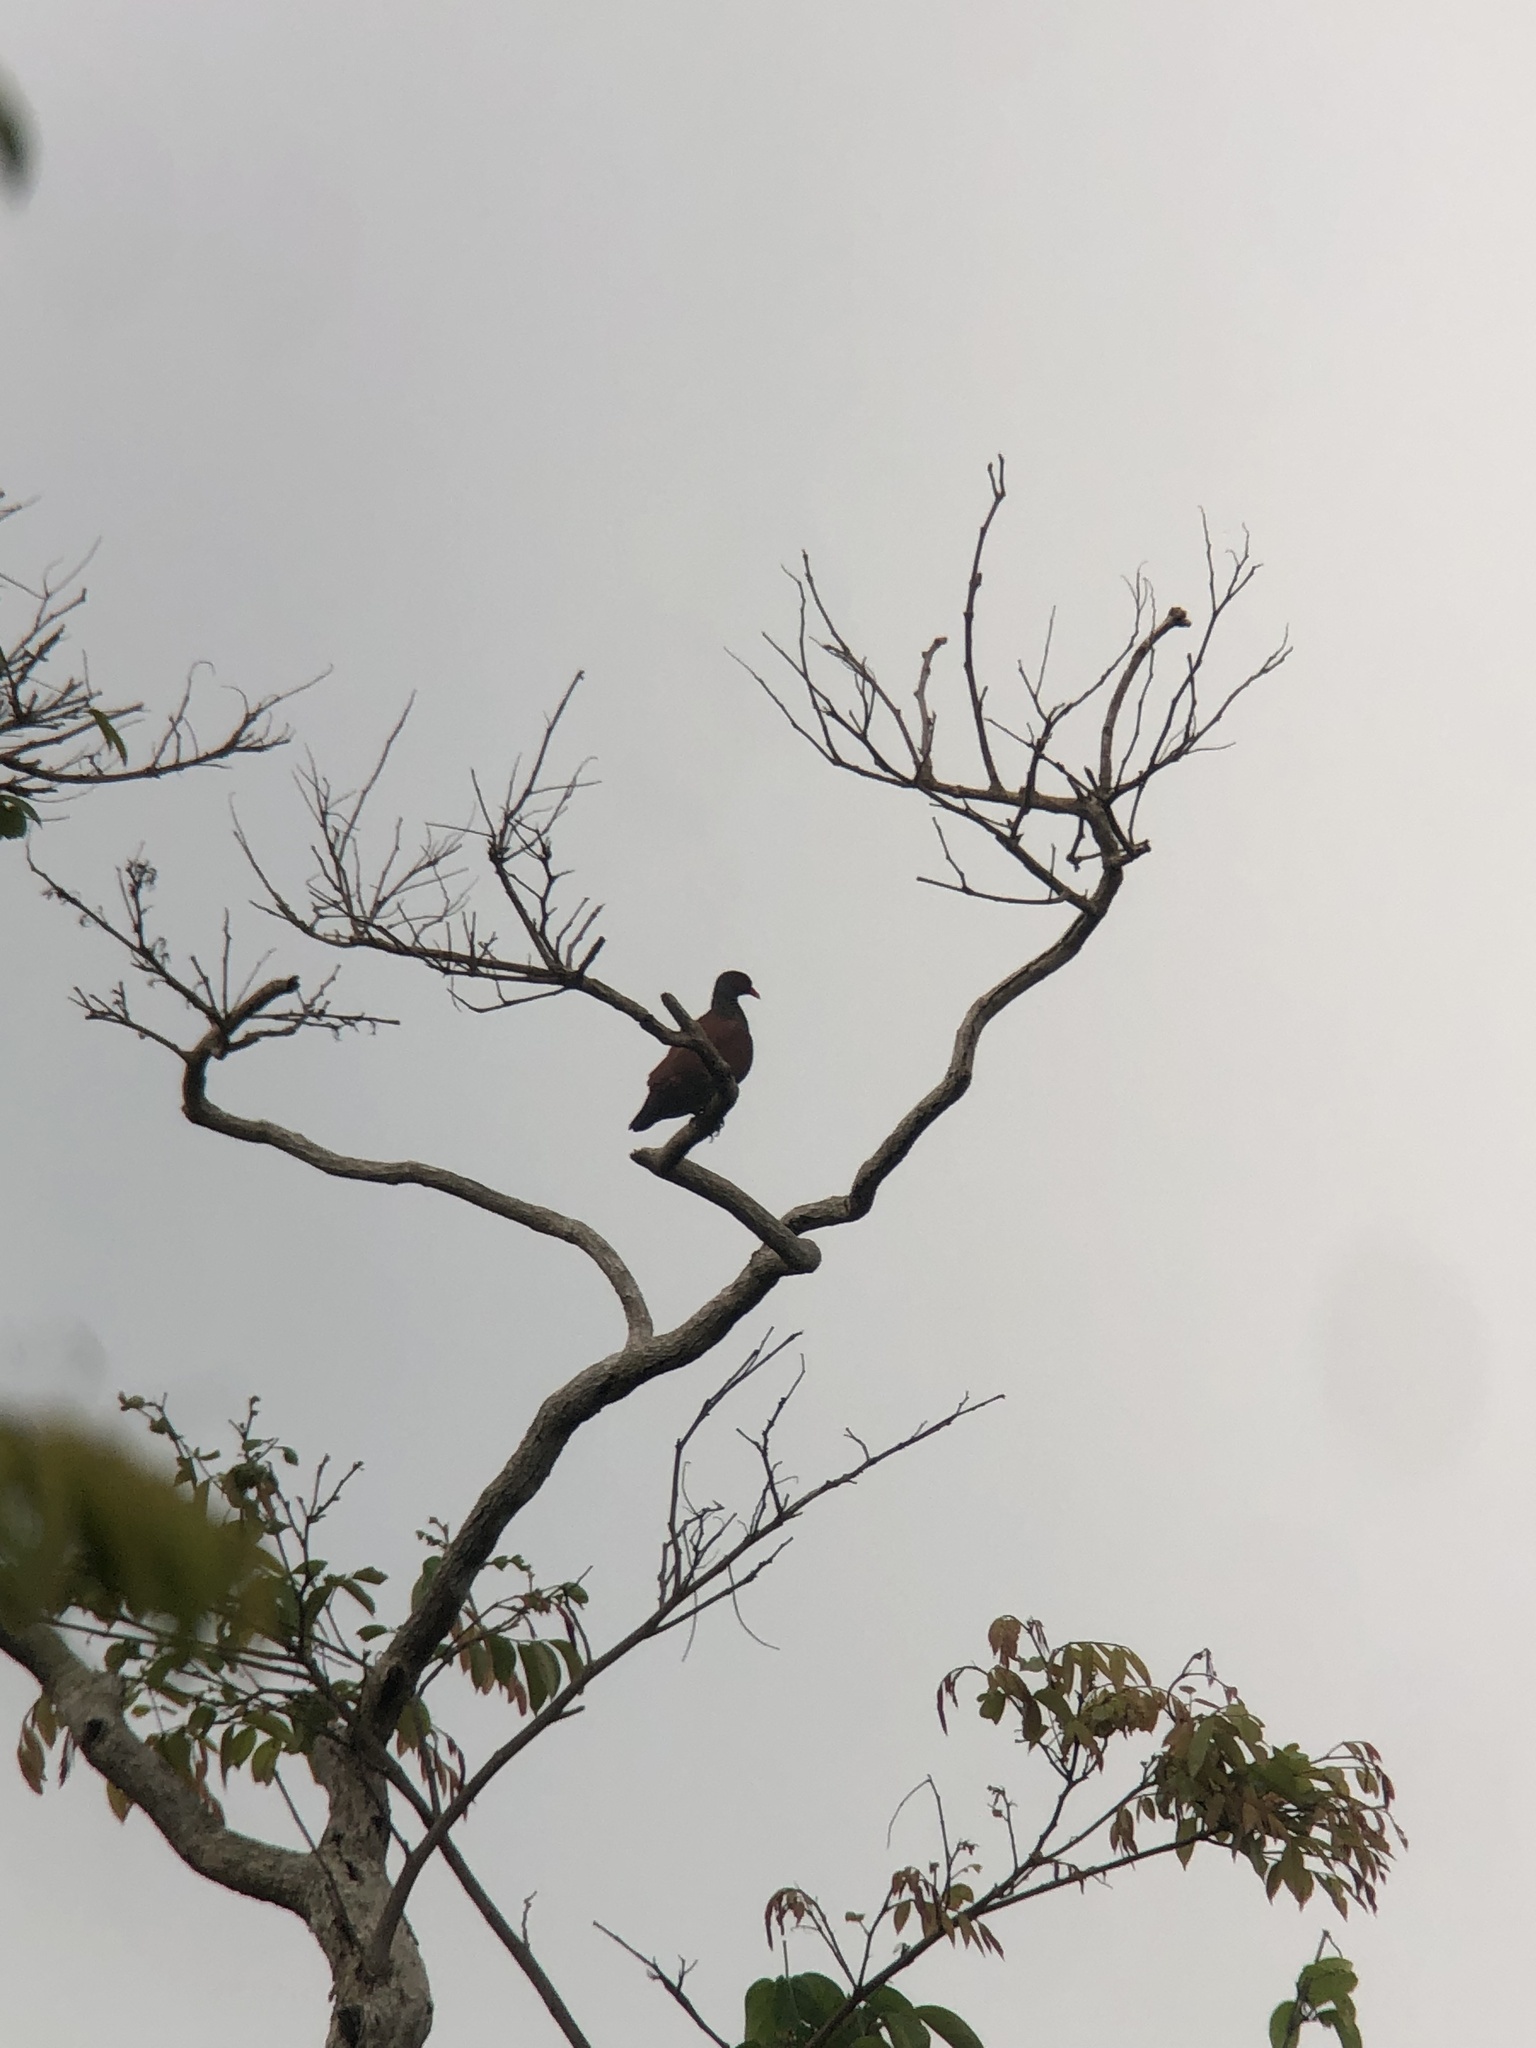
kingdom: Animalia
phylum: Chordata
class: Aves
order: Columbiformes
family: Columbidae
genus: Patagioenas
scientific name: Patagioenas speciosa
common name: Scaled pigeon
